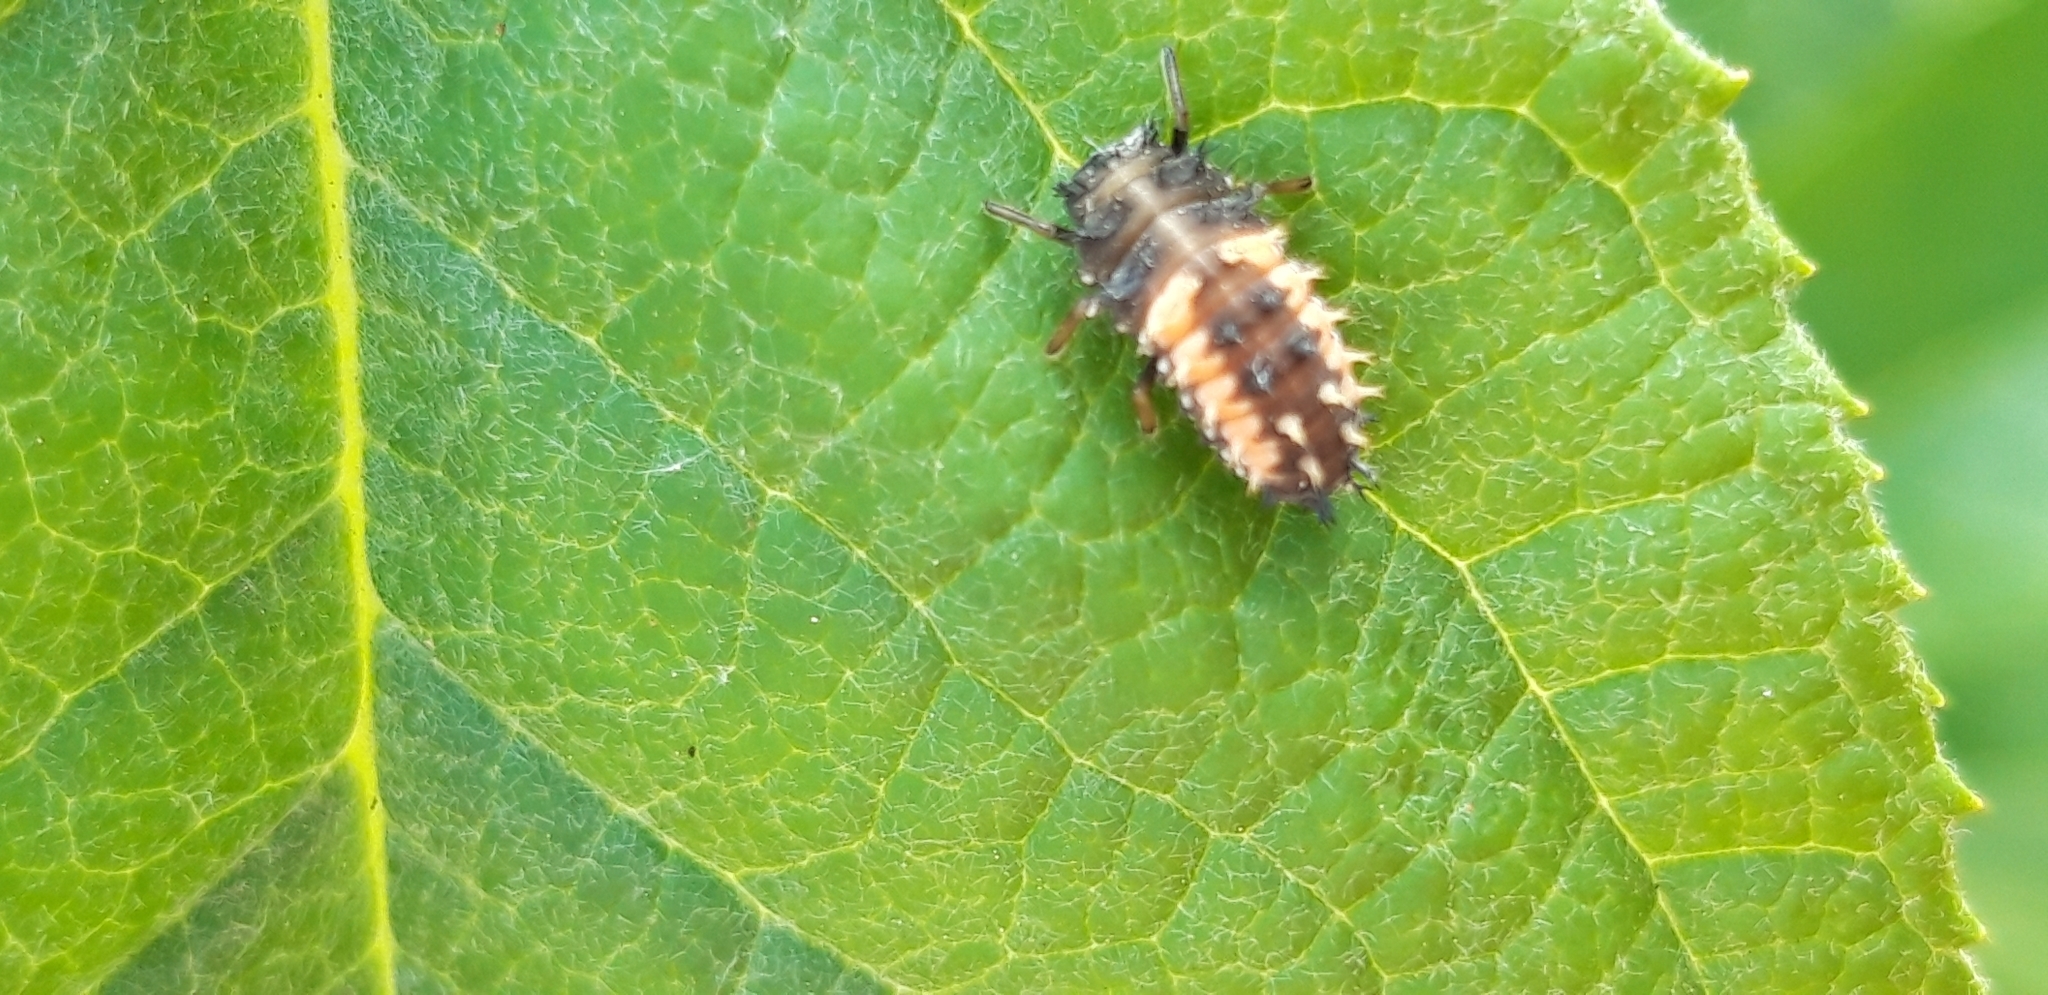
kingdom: Animalia
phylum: Arthropoda
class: Insecta
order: Coleoptera
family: Coccinellidae
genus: Harmonia
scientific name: Harmonia axyridis
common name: Harlequin ladybird
